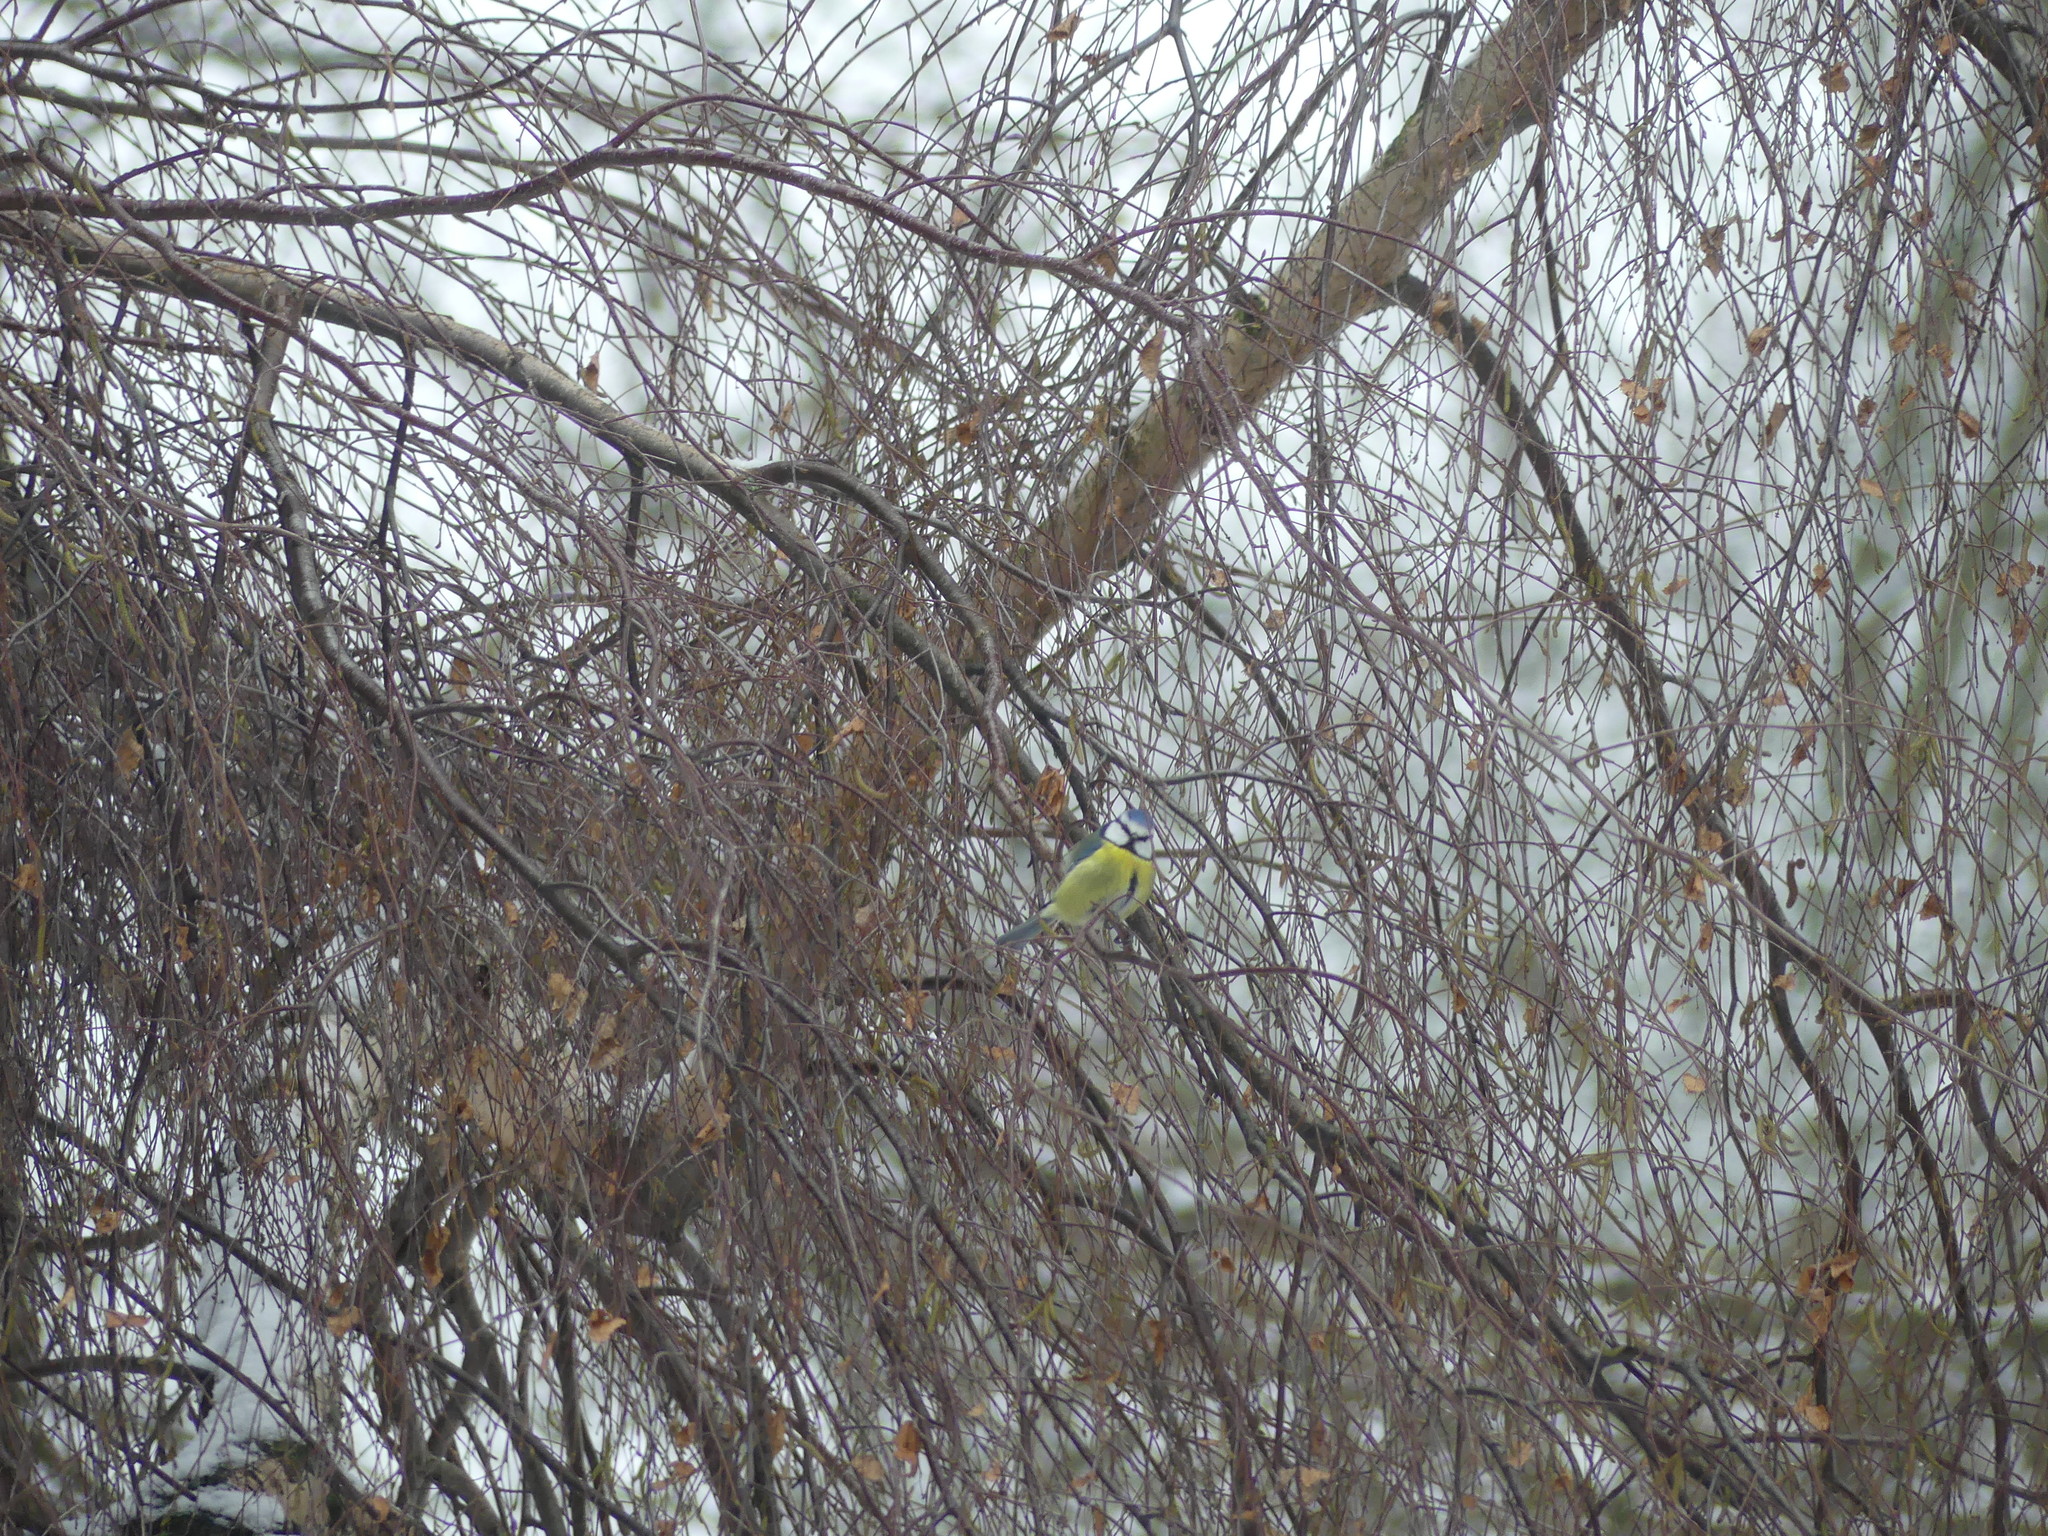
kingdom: Animalia
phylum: Chordata
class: Aves
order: Passeriformes
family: Paridae
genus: Cyanistes
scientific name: Cyanistes caeruleus
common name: Eurasian blue tit
